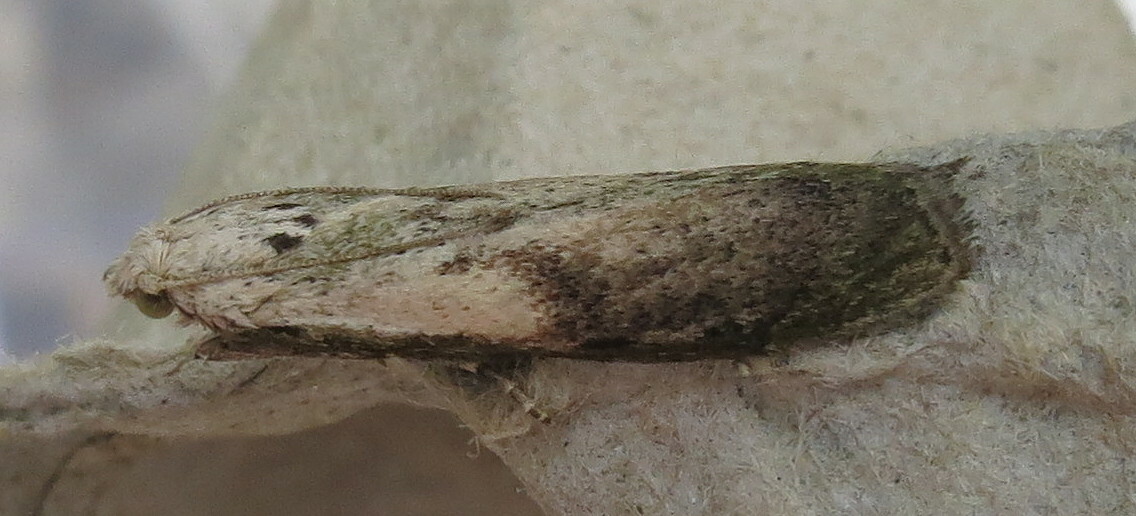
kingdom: Animalia
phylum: Arthropoda
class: Insecta
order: Lepidoptera
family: Pyralidae
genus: Aphomia
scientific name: Aphomia sociella
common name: Bee moth
